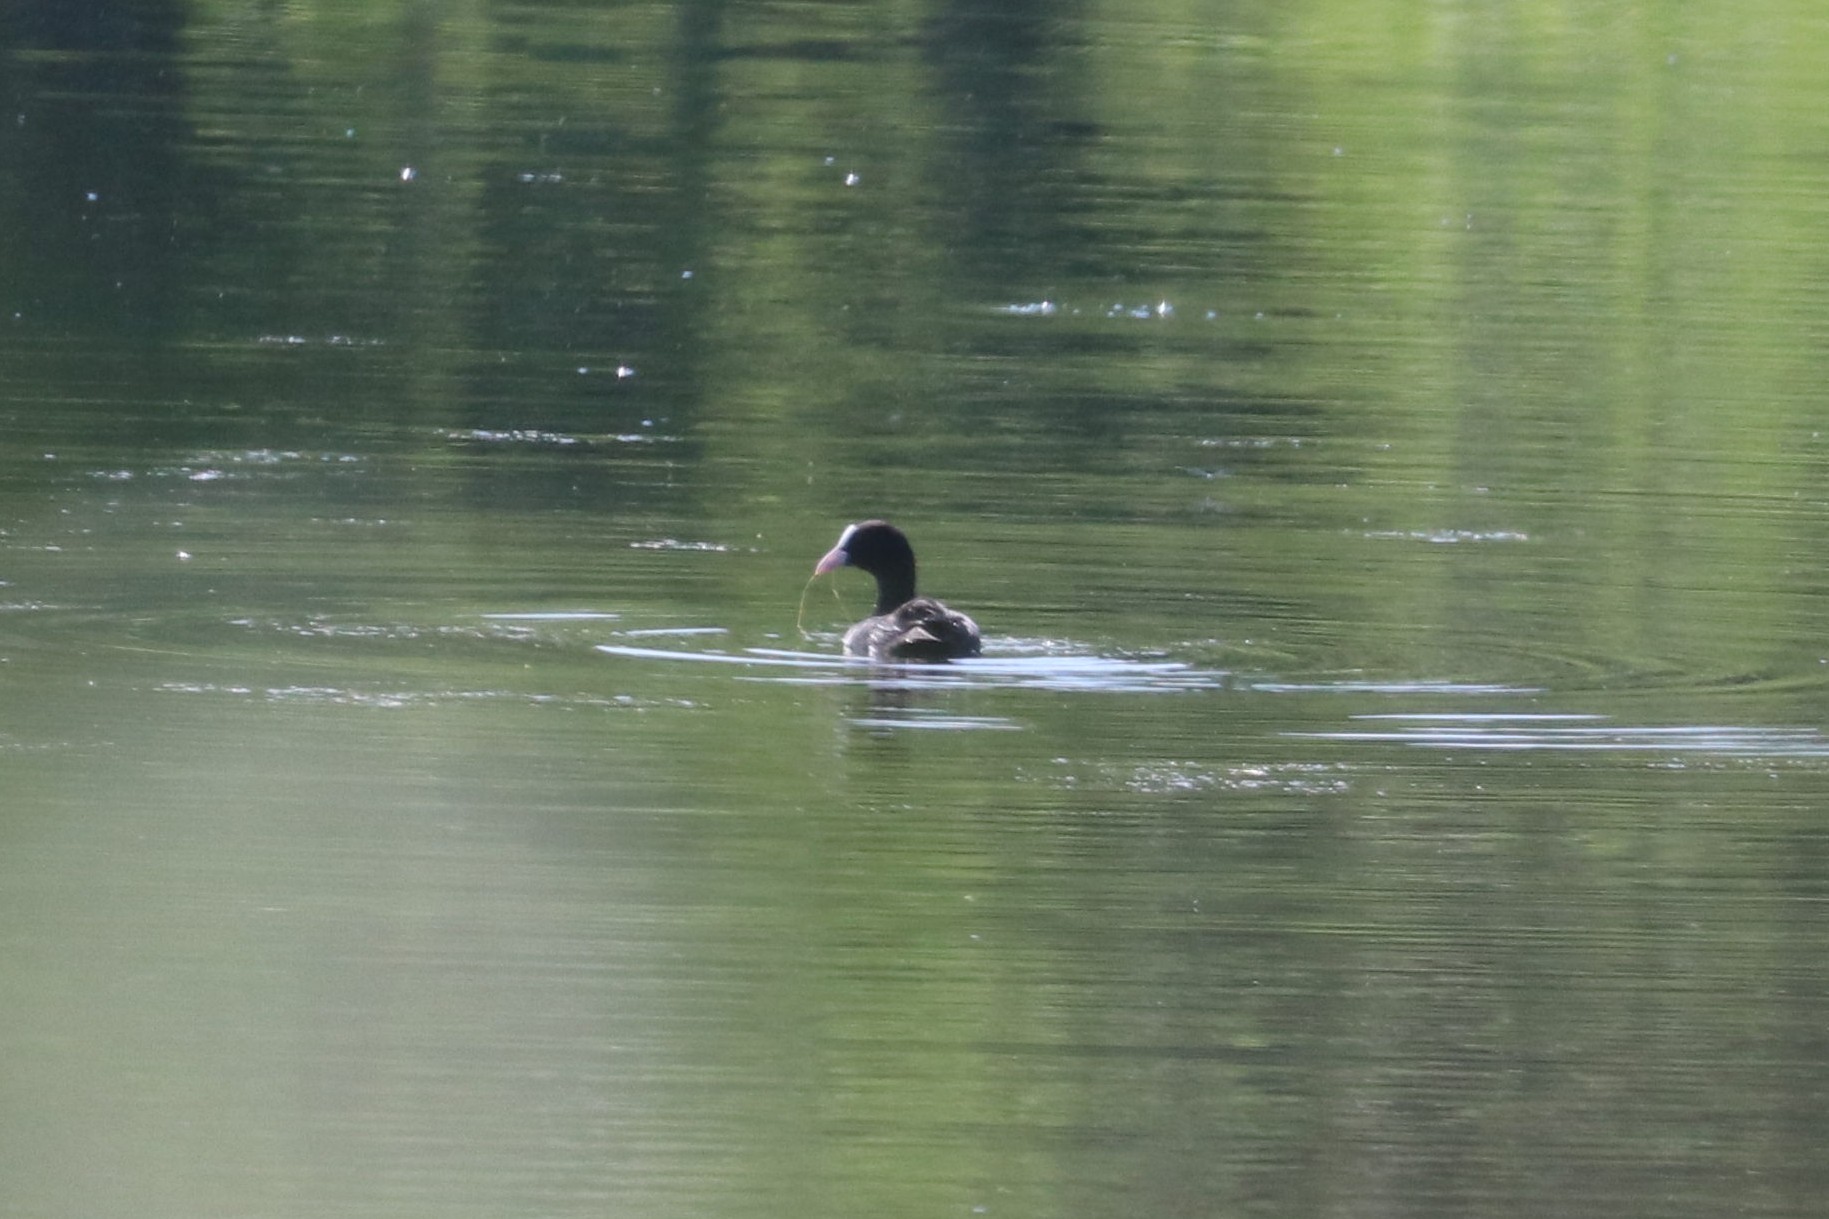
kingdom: Animalia
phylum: Chordata
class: Aves
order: Gruiformes
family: Rallidae
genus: Fulica
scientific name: Fulica atra
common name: Eurasian coot
